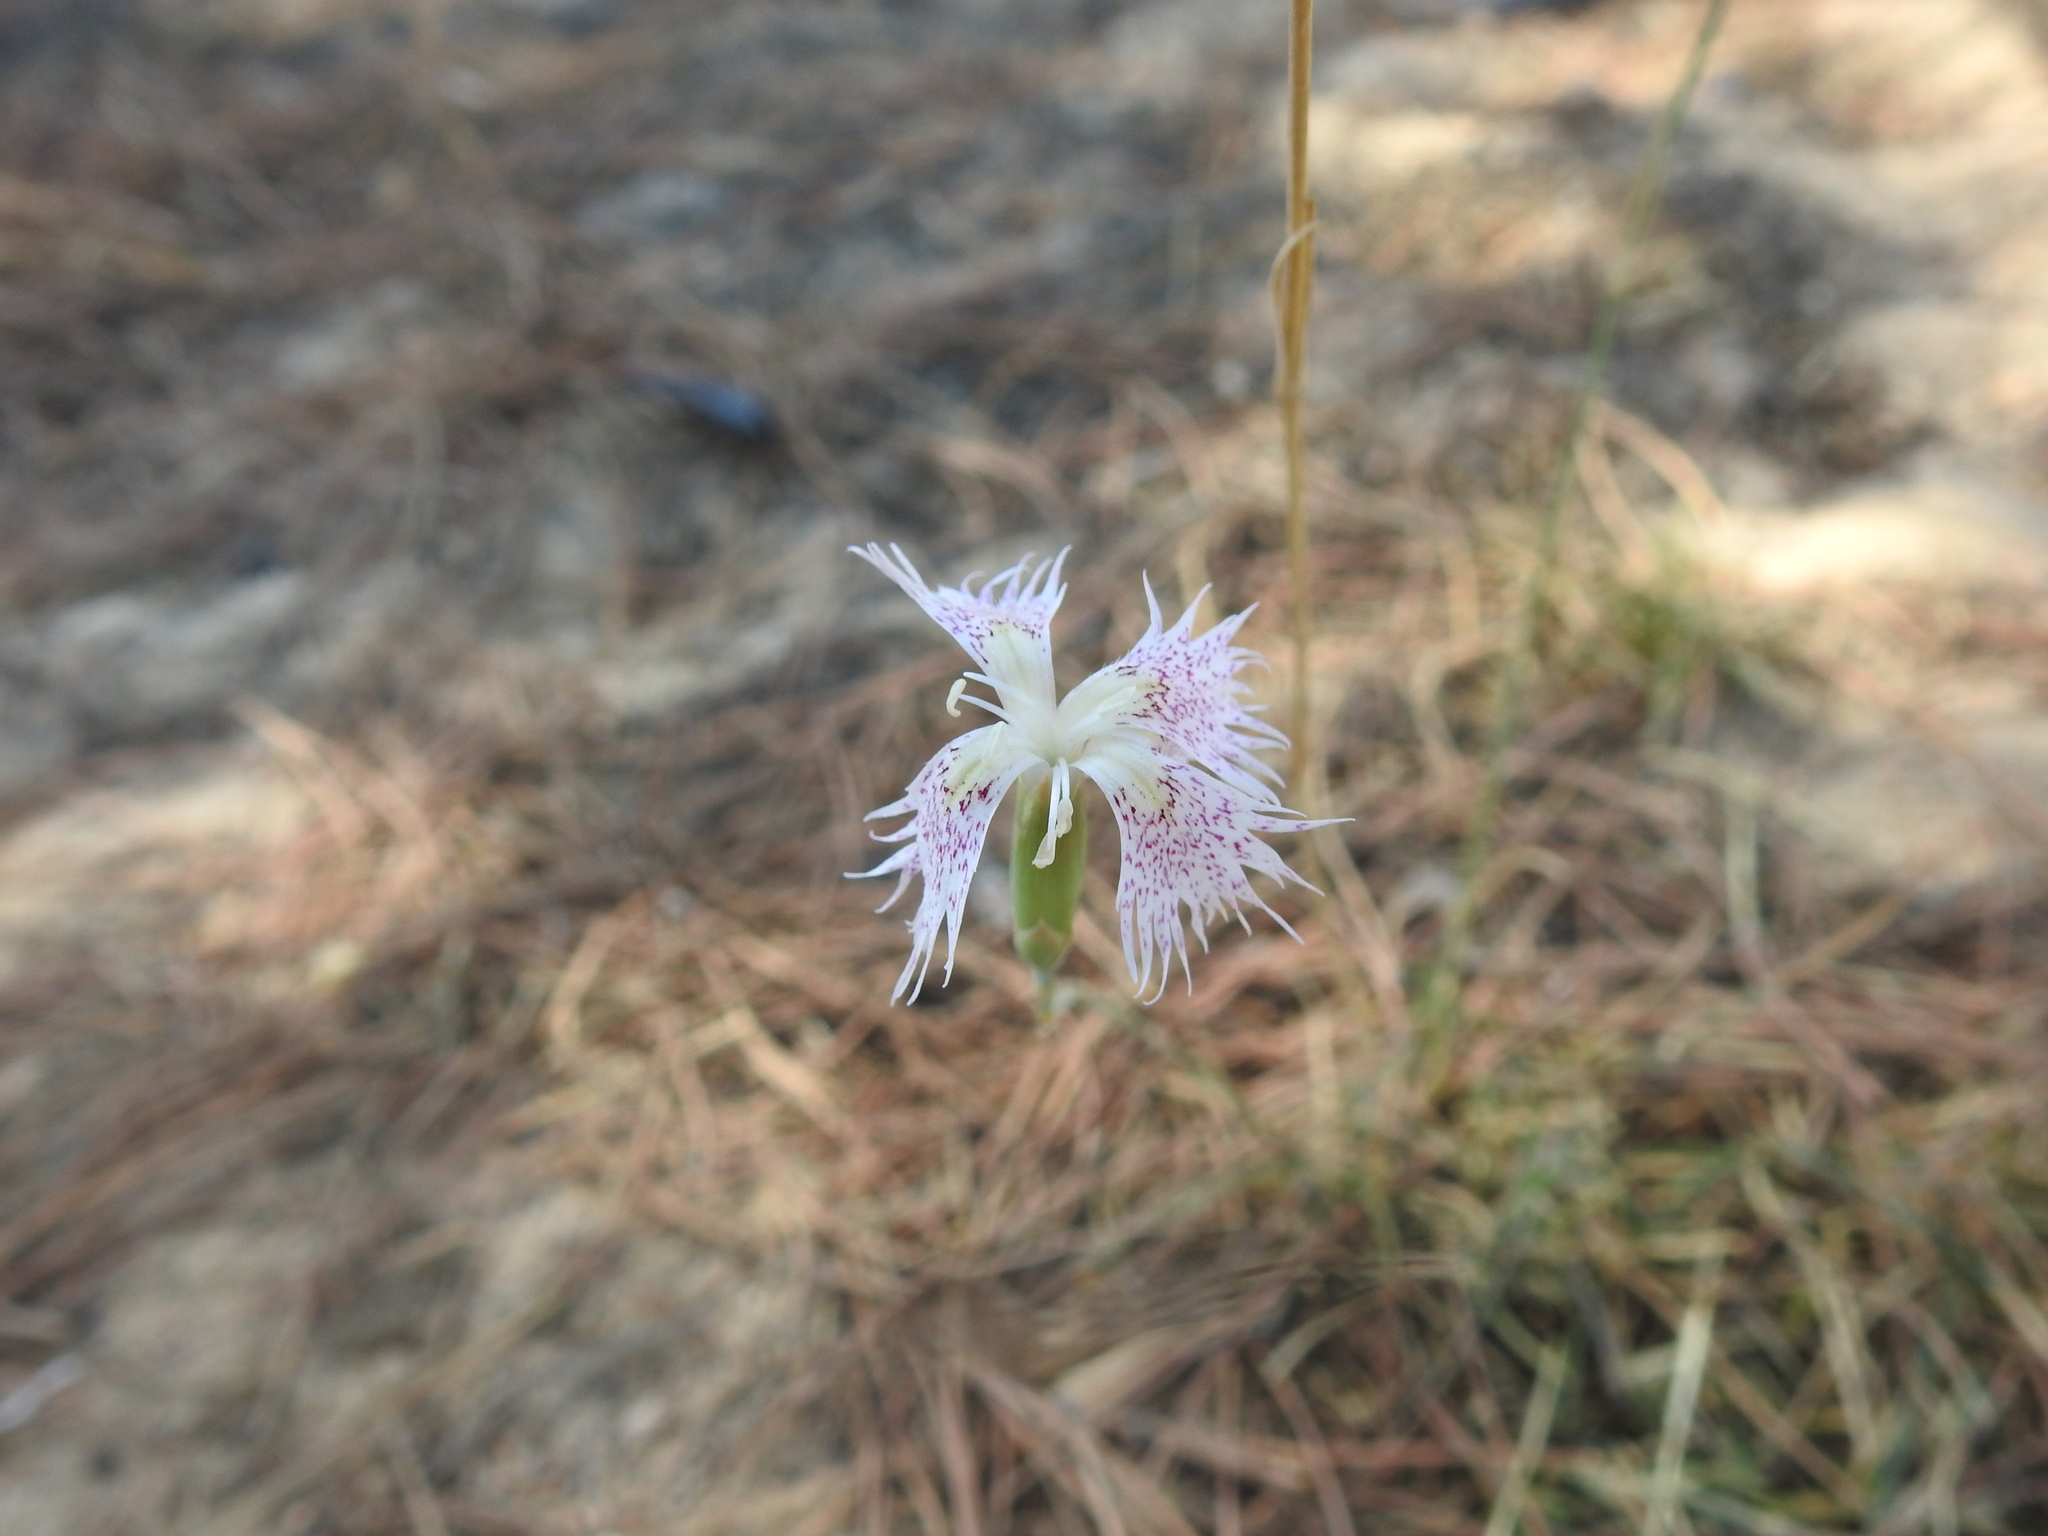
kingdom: Plantae
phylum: Tracheophyta
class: Magnoliopsida
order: Caryophyllales
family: Caryophyllaceae
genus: Dianthus
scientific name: Dianthus broteri
